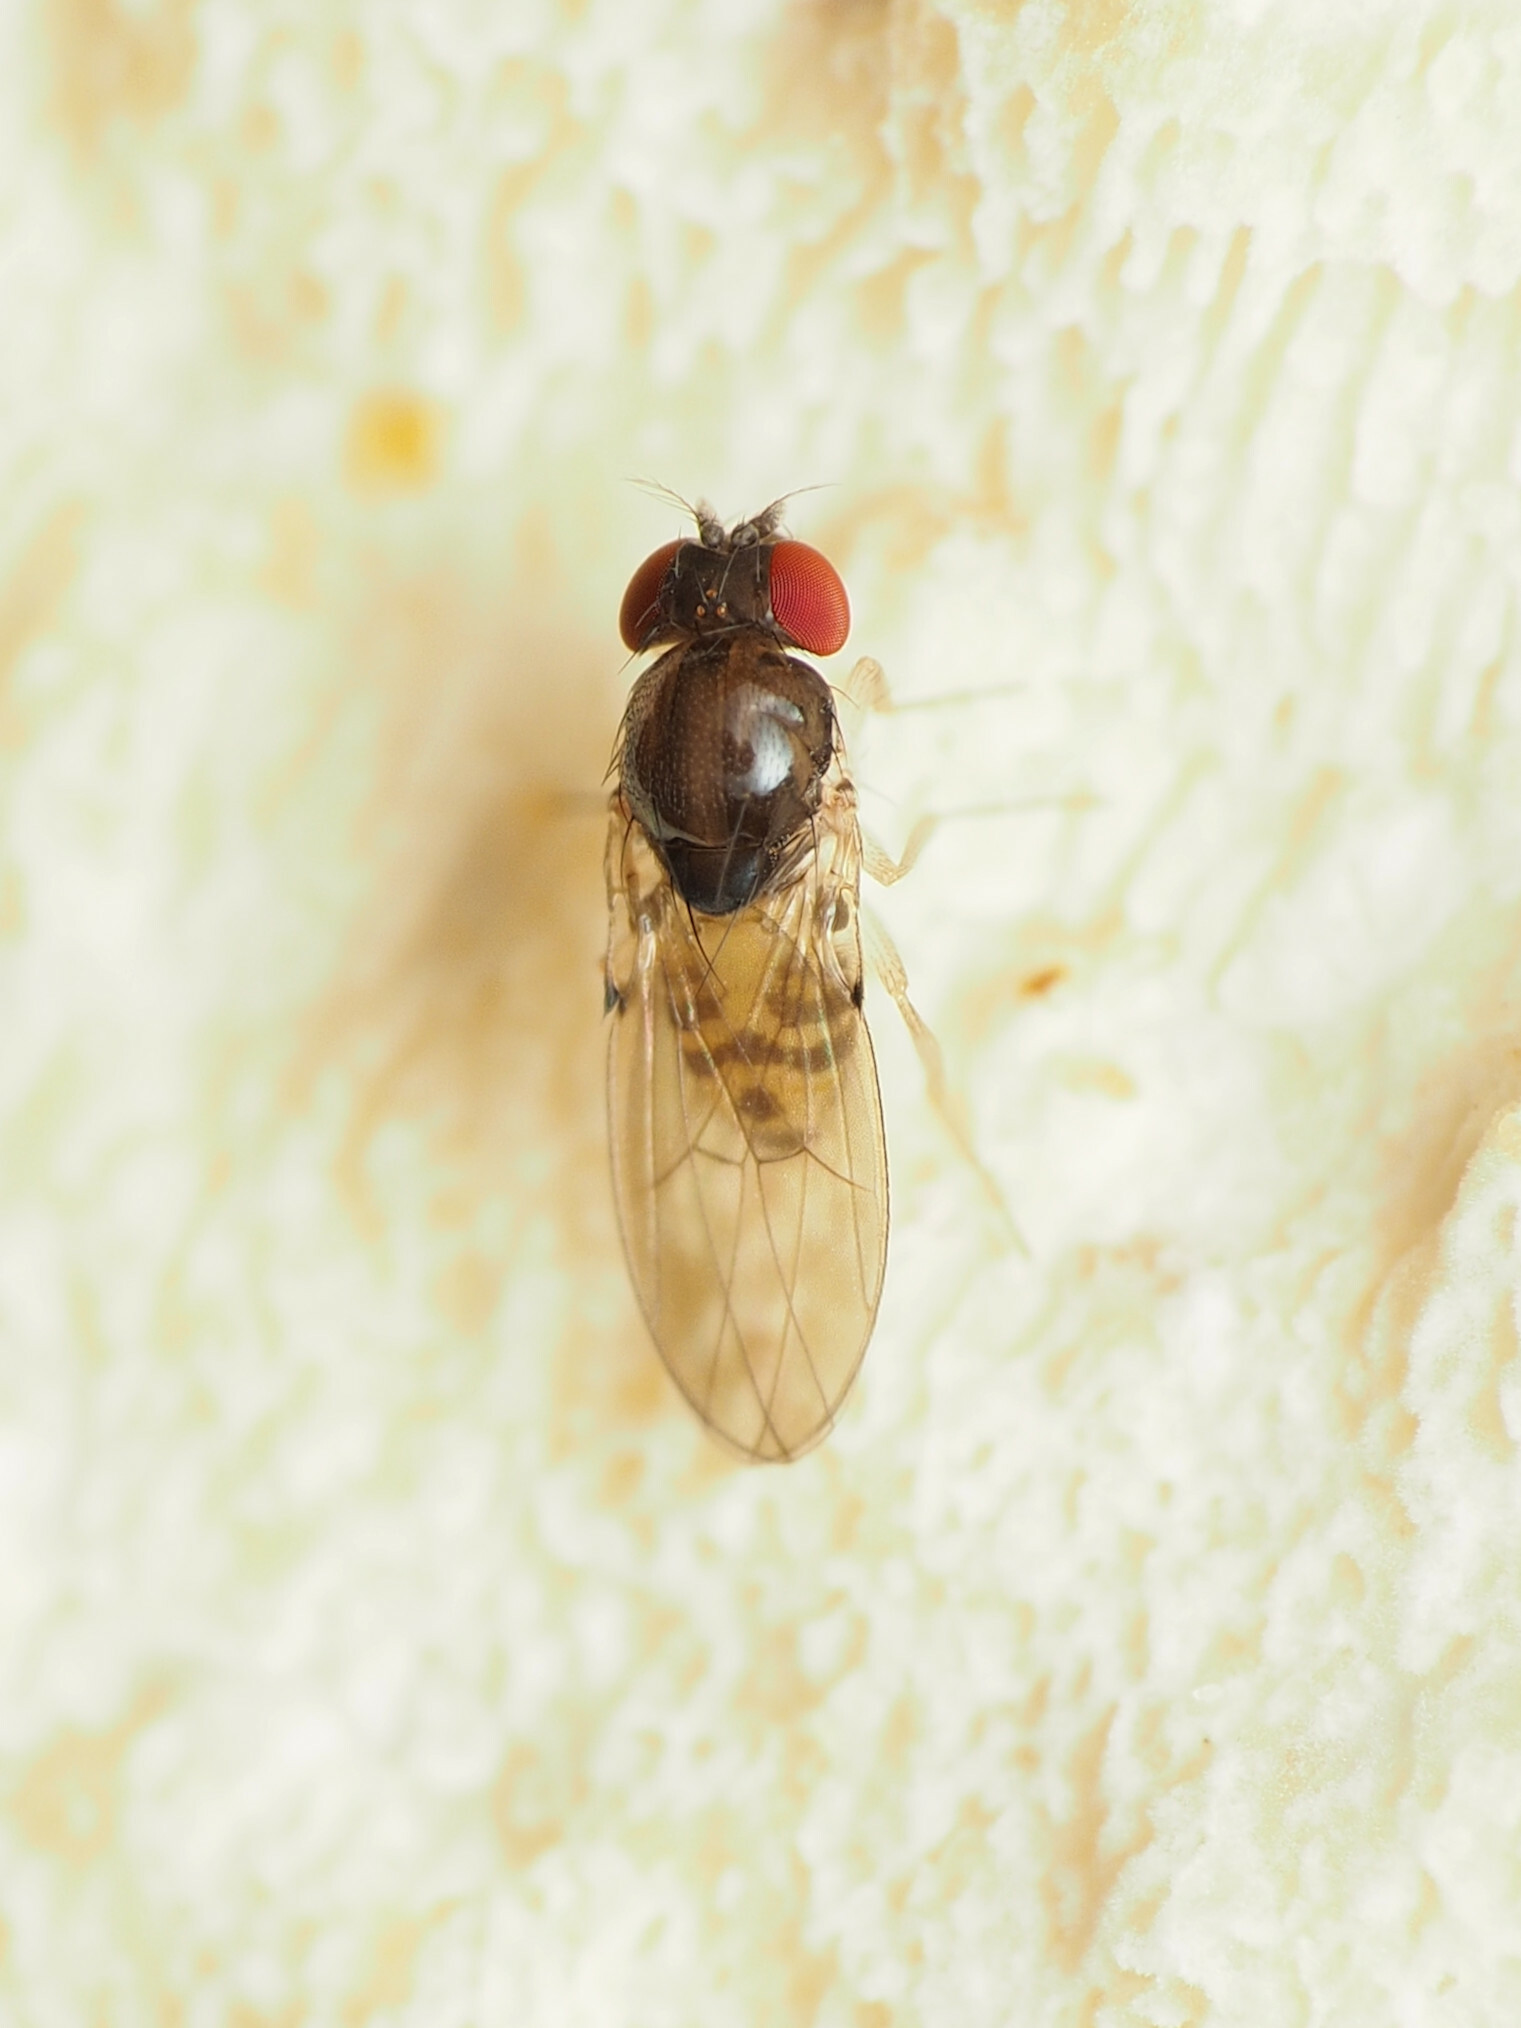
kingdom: Animalia
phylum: Arthropoda
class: Insecta
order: Diptera
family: Drosophilidae
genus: Mycodrosophila
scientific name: Mycodrosophila claytonae
